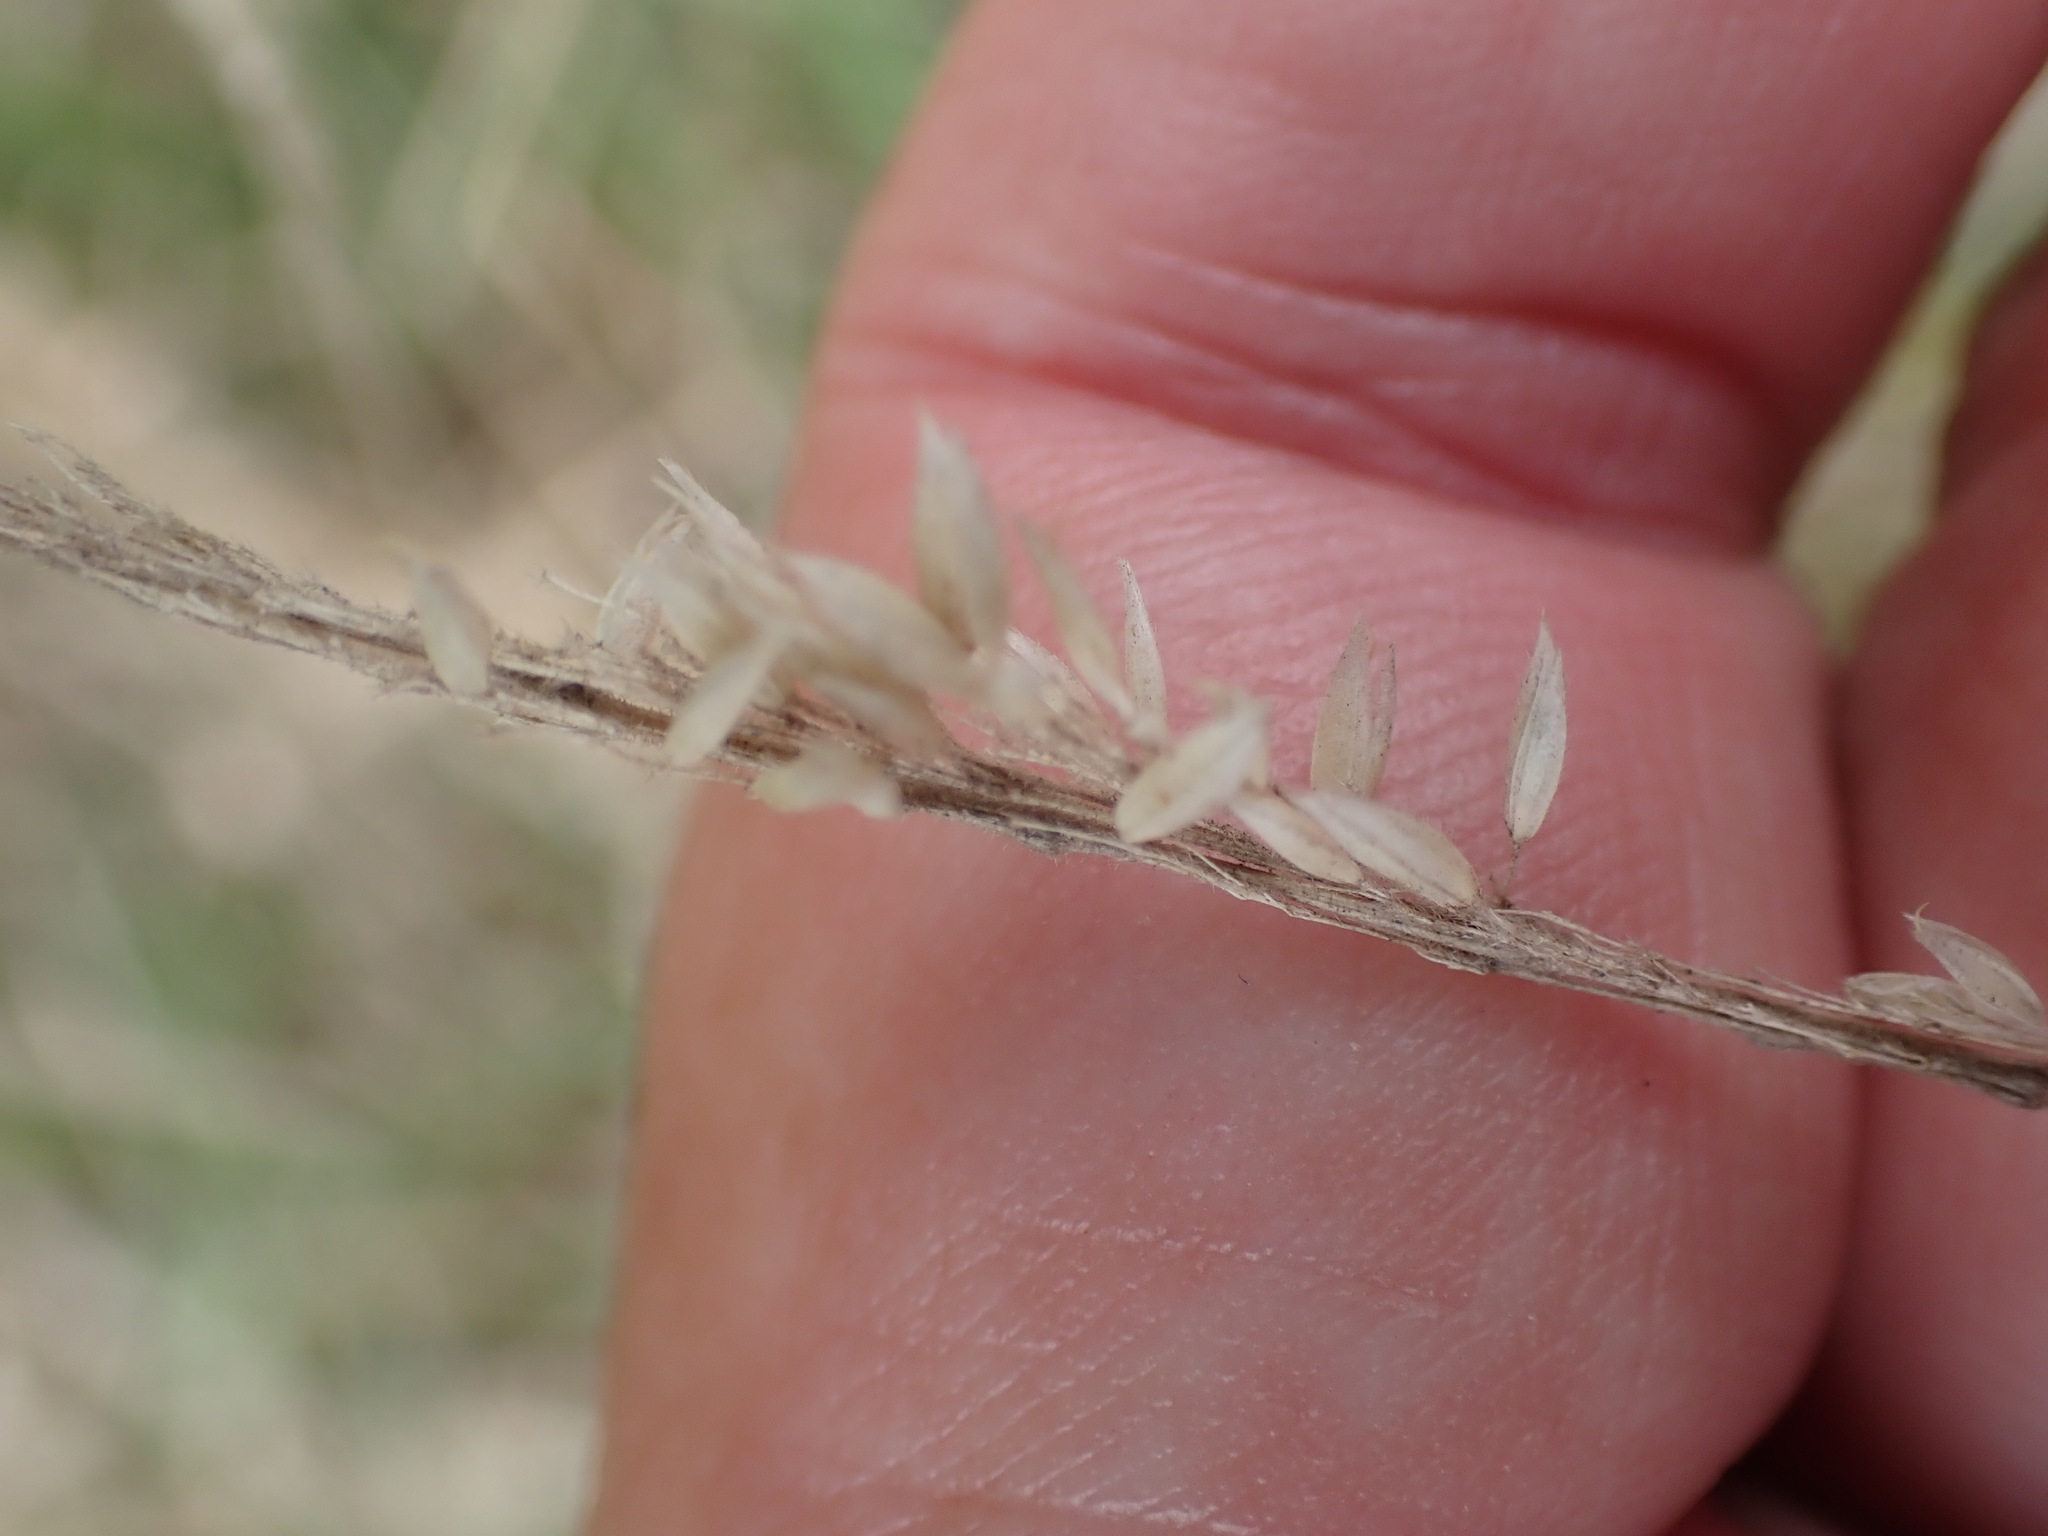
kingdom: Plantae
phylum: Tracheophyta
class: Liliopsida
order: Poales
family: Poaceae
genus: Holcus
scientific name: Holcus lanatus
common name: Yorkshire-fog
